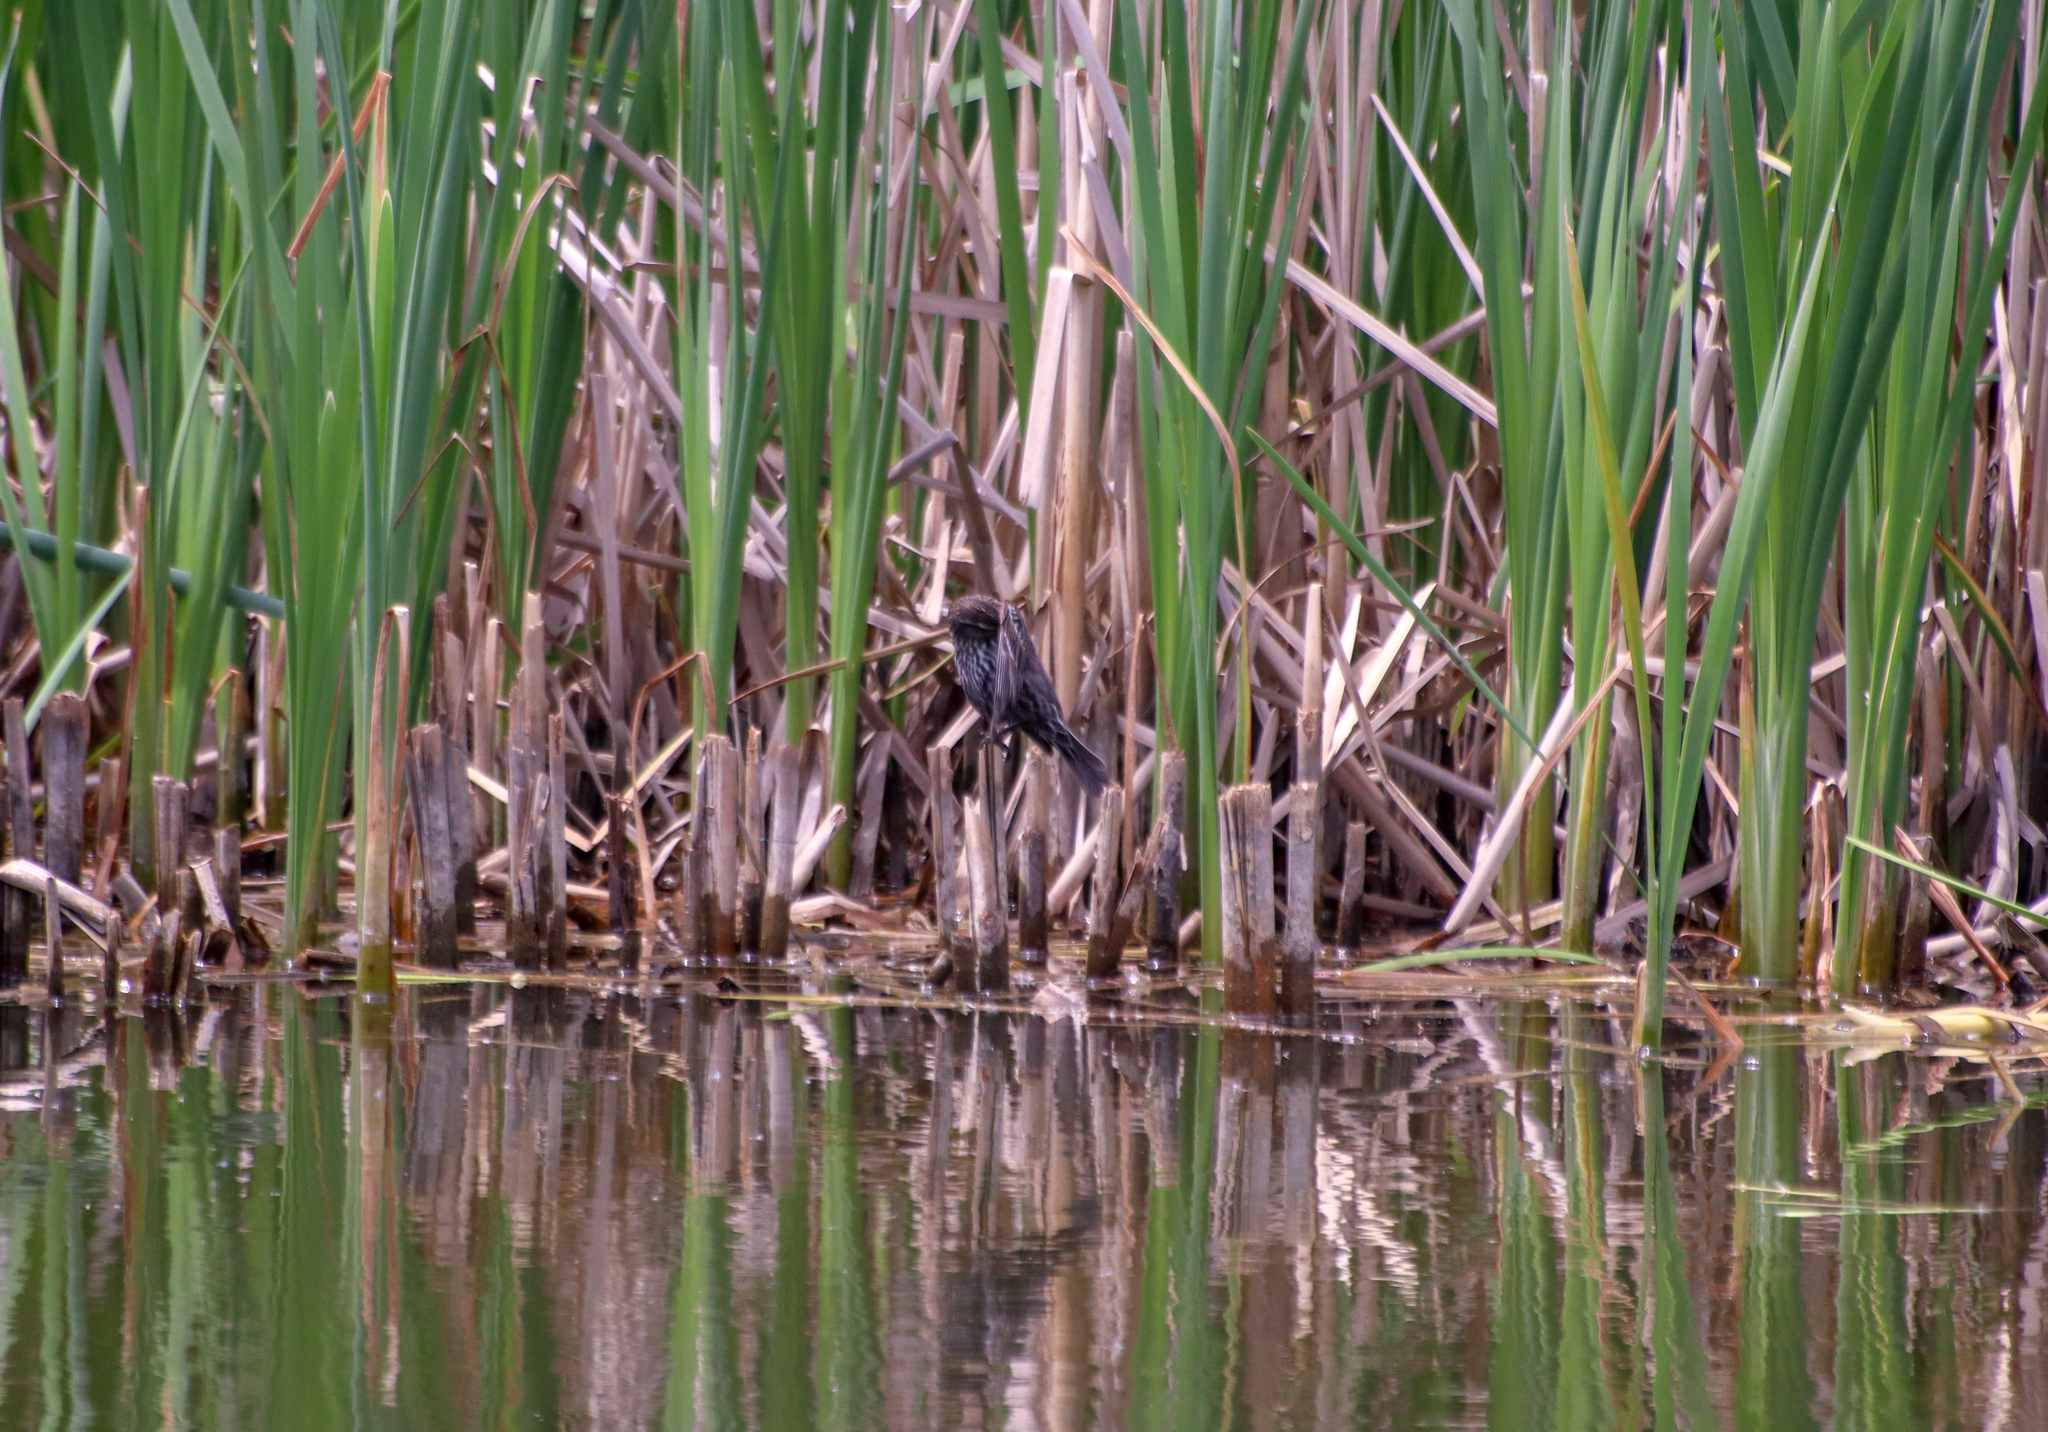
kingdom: Animalia
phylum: Chordata
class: Aves
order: Passeriformes
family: Icteridae
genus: Agelaius
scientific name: Agelaius phoeniceus
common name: Red-winged blackbird
